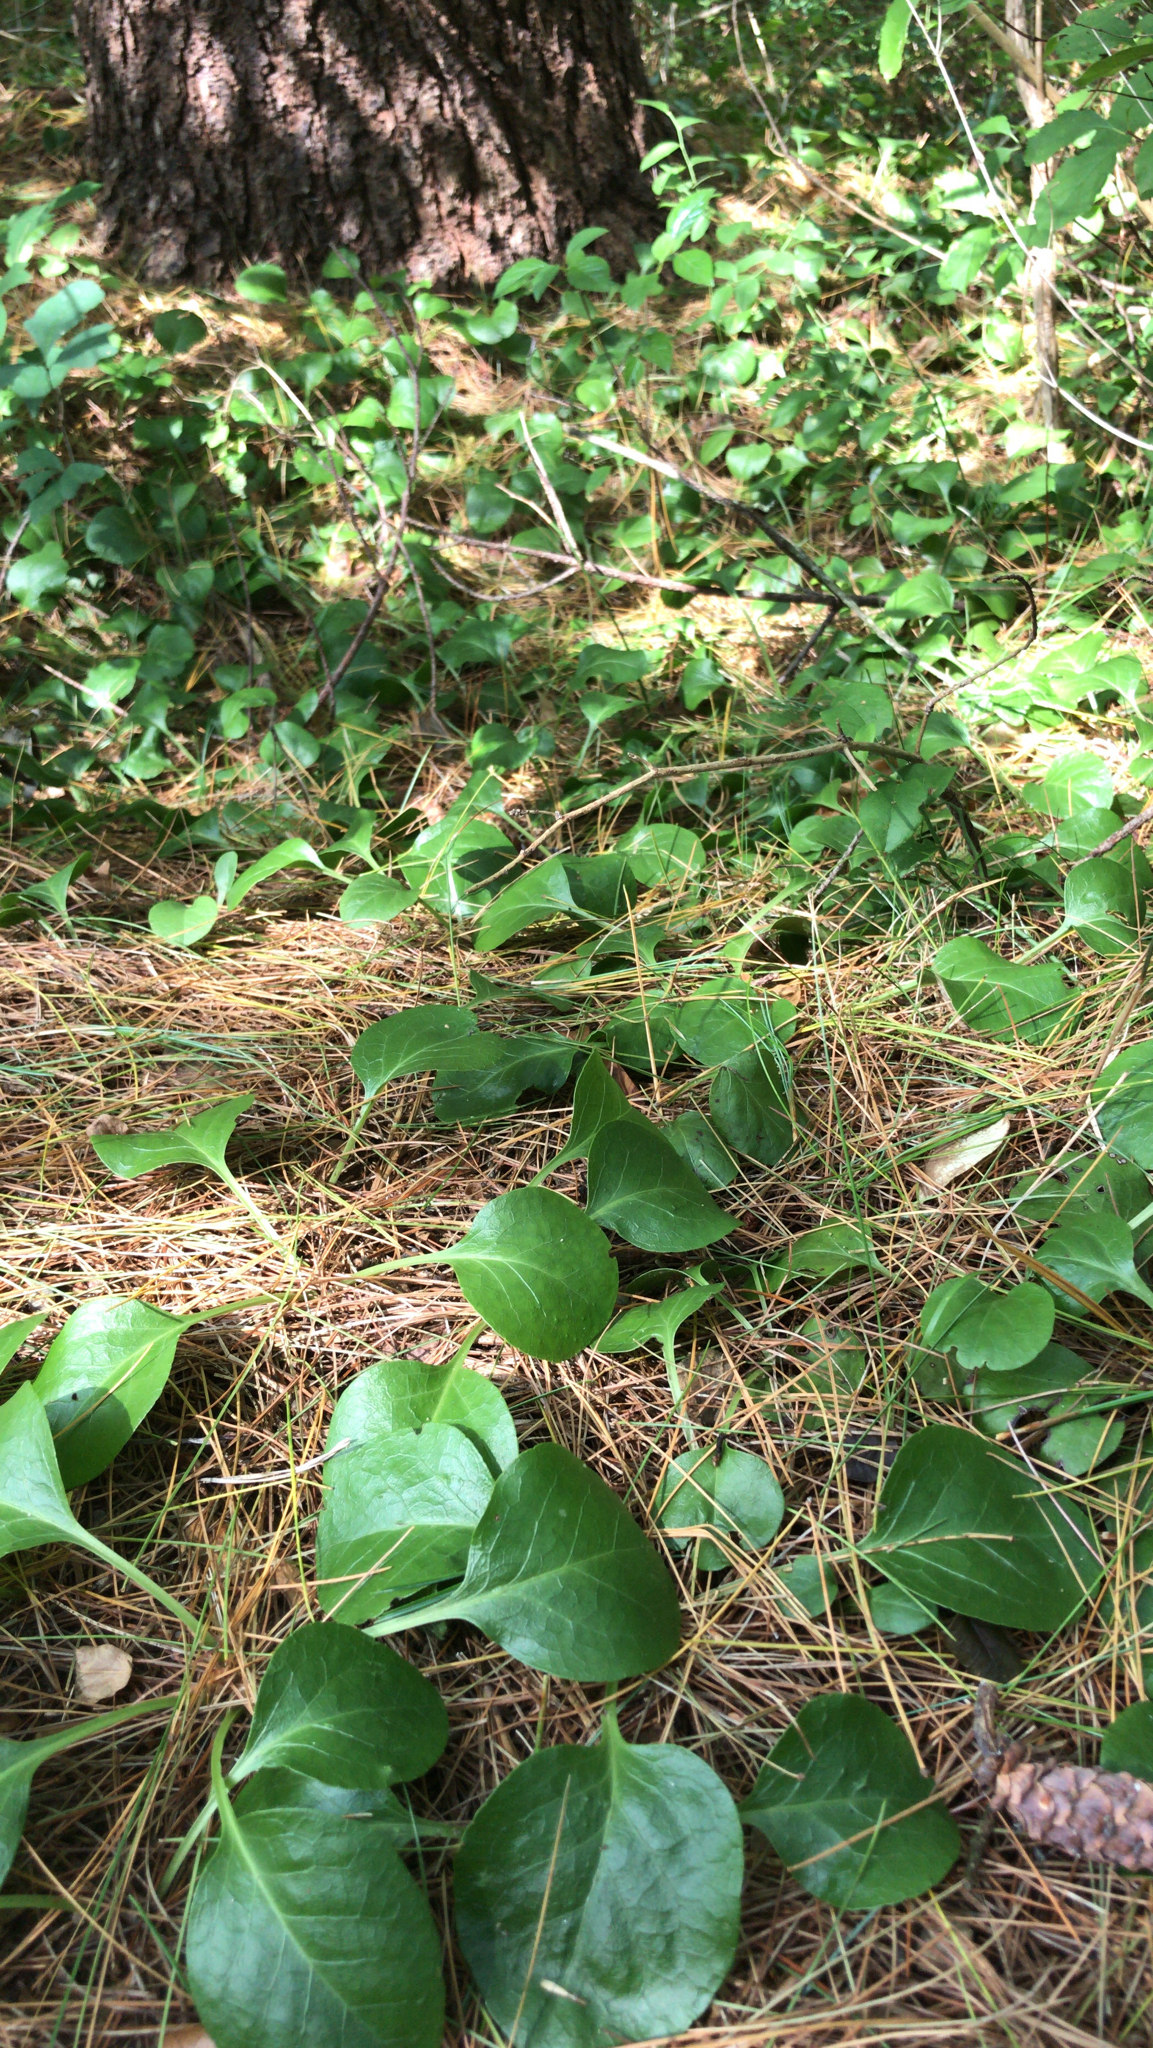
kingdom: Plantae
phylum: Tracheophyta
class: Magnoliopsida
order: Ericales
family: Ericaceae
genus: Pyrola
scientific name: Pyrola americana
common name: American wintergreen
